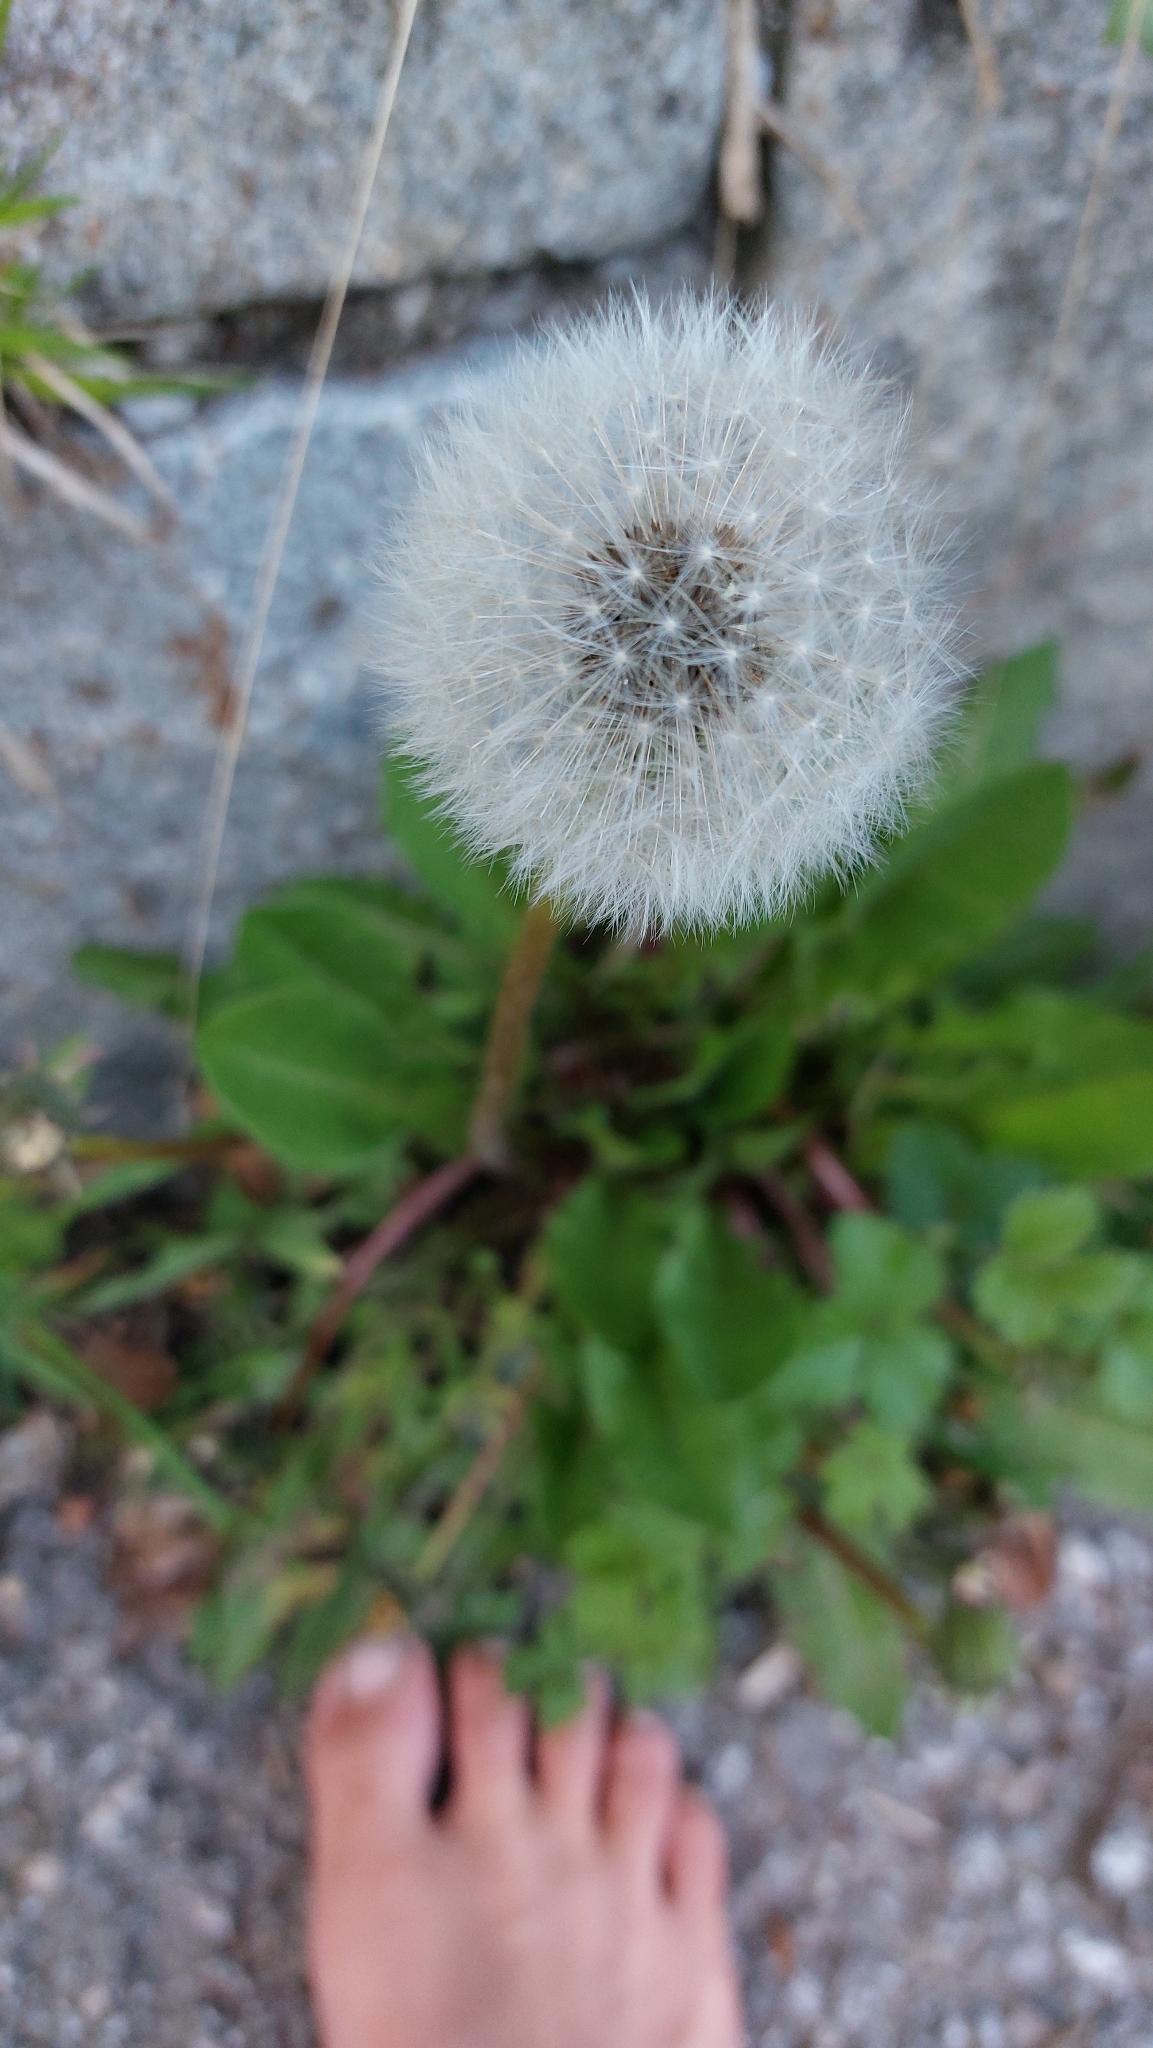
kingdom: Plantae
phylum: Tracheophyta
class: Magnoliopsida
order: Asterales
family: Asteraceae
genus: Taraxacum
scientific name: Taraxacum
